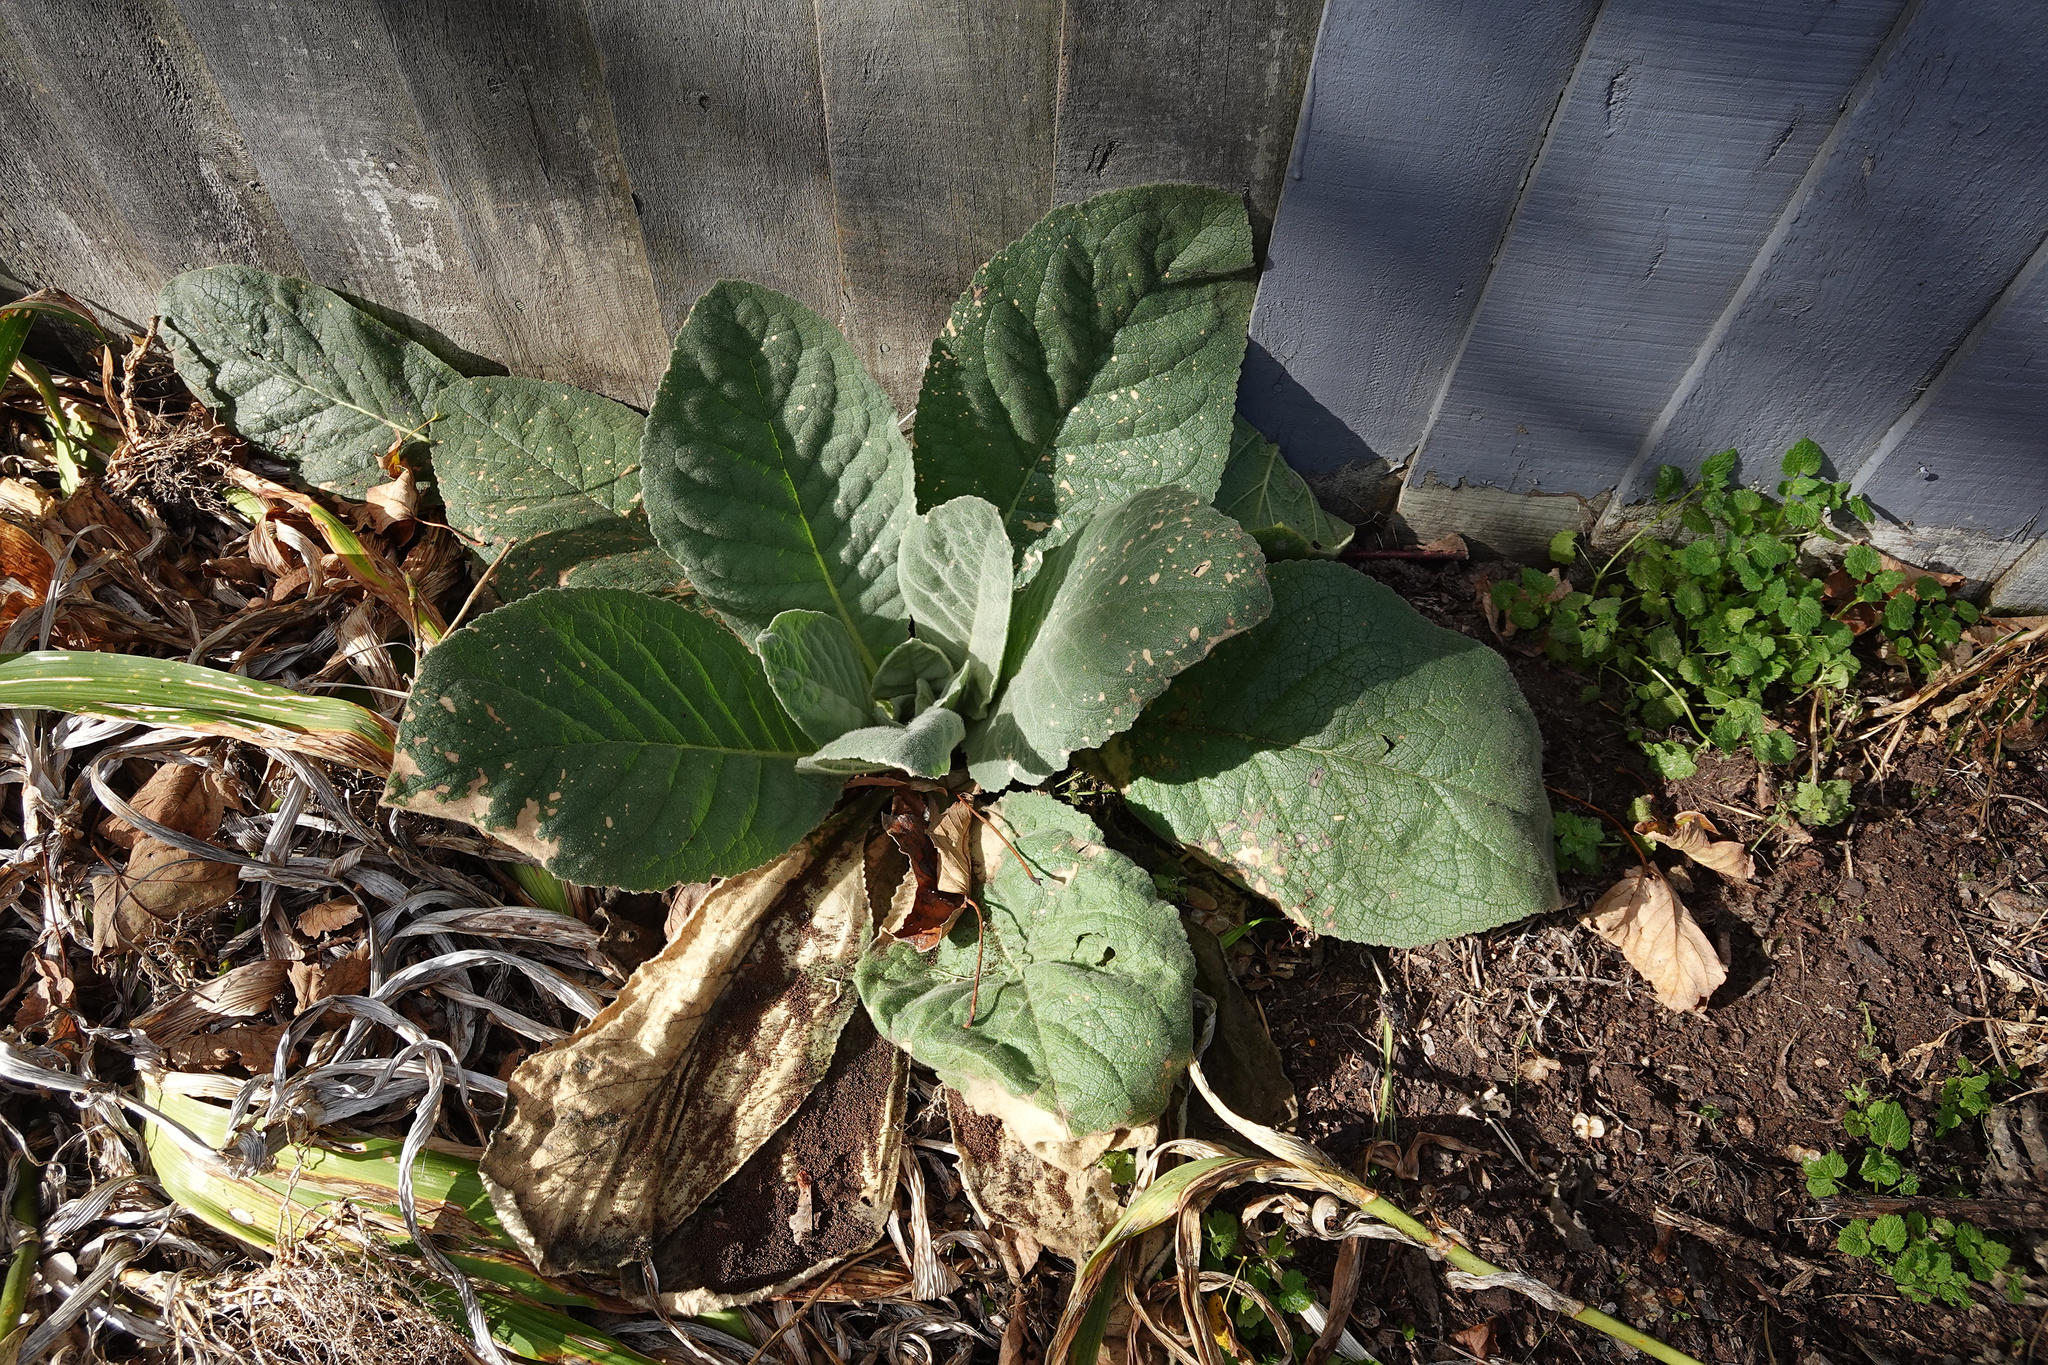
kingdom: Plantae
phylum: Tracheophyta
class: Magnoliopsida
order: Lamiales
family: Scrophulariaceae
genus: Verbascum
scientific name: Verbascum thapsus
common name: Common mullein
